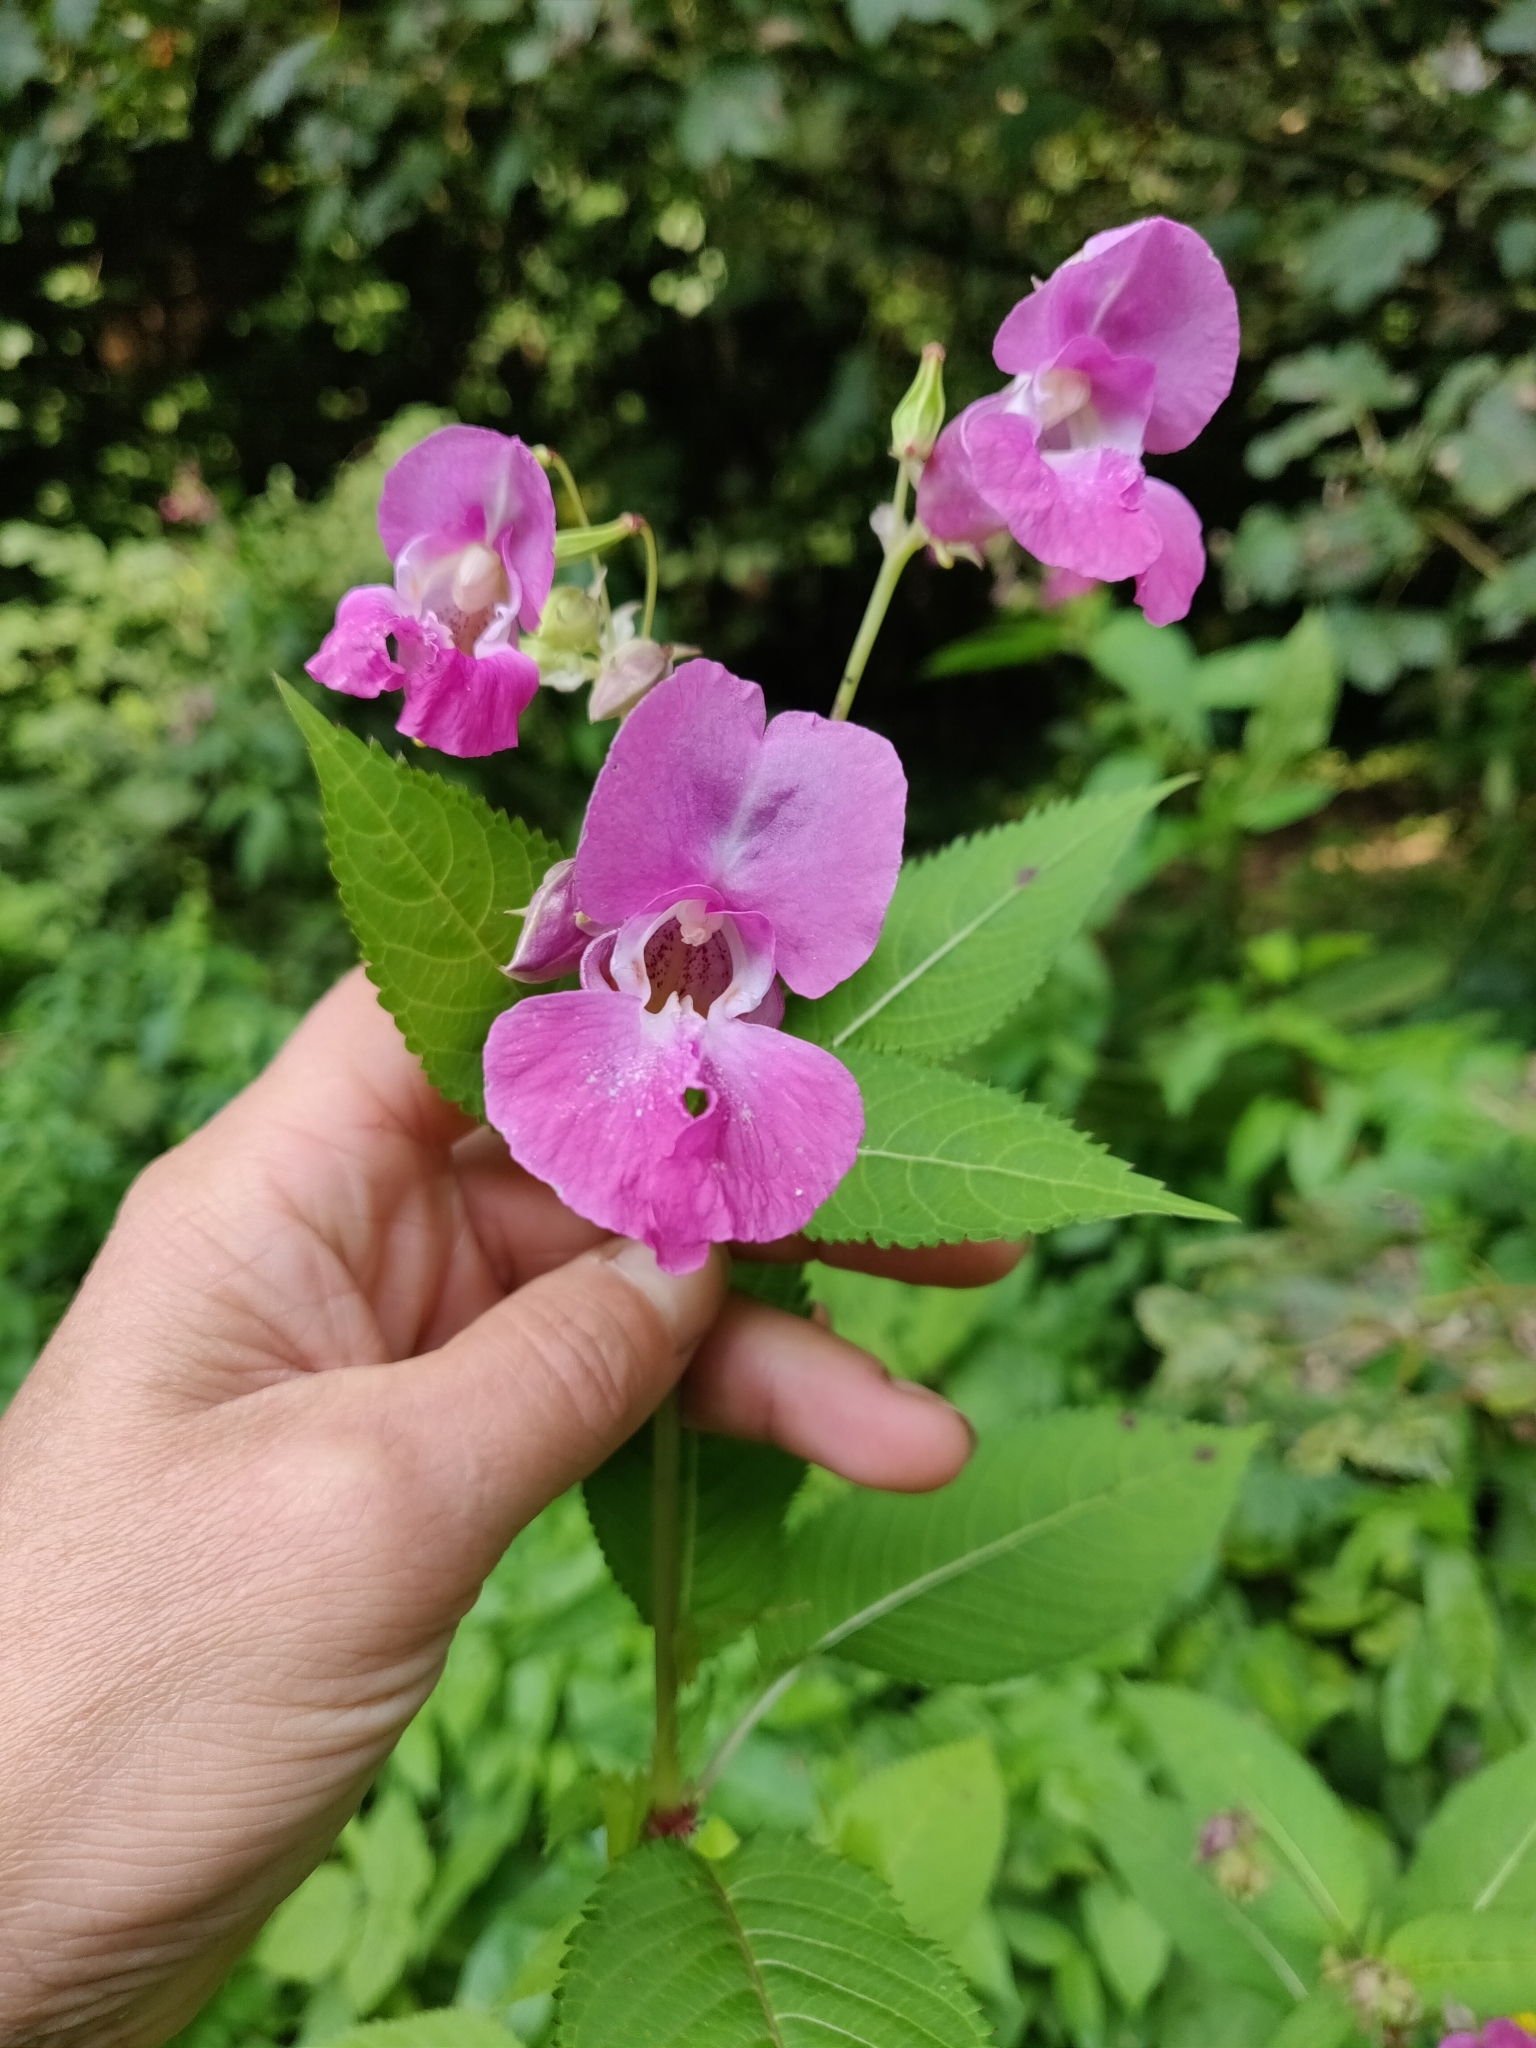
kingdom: Plantae
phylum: Tracheophyta
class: Magnoliopsida
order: Ericales
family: Balsaminaceae
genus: Impatiens
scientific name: Impatiens glandulifera
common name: Himalayan balsam
